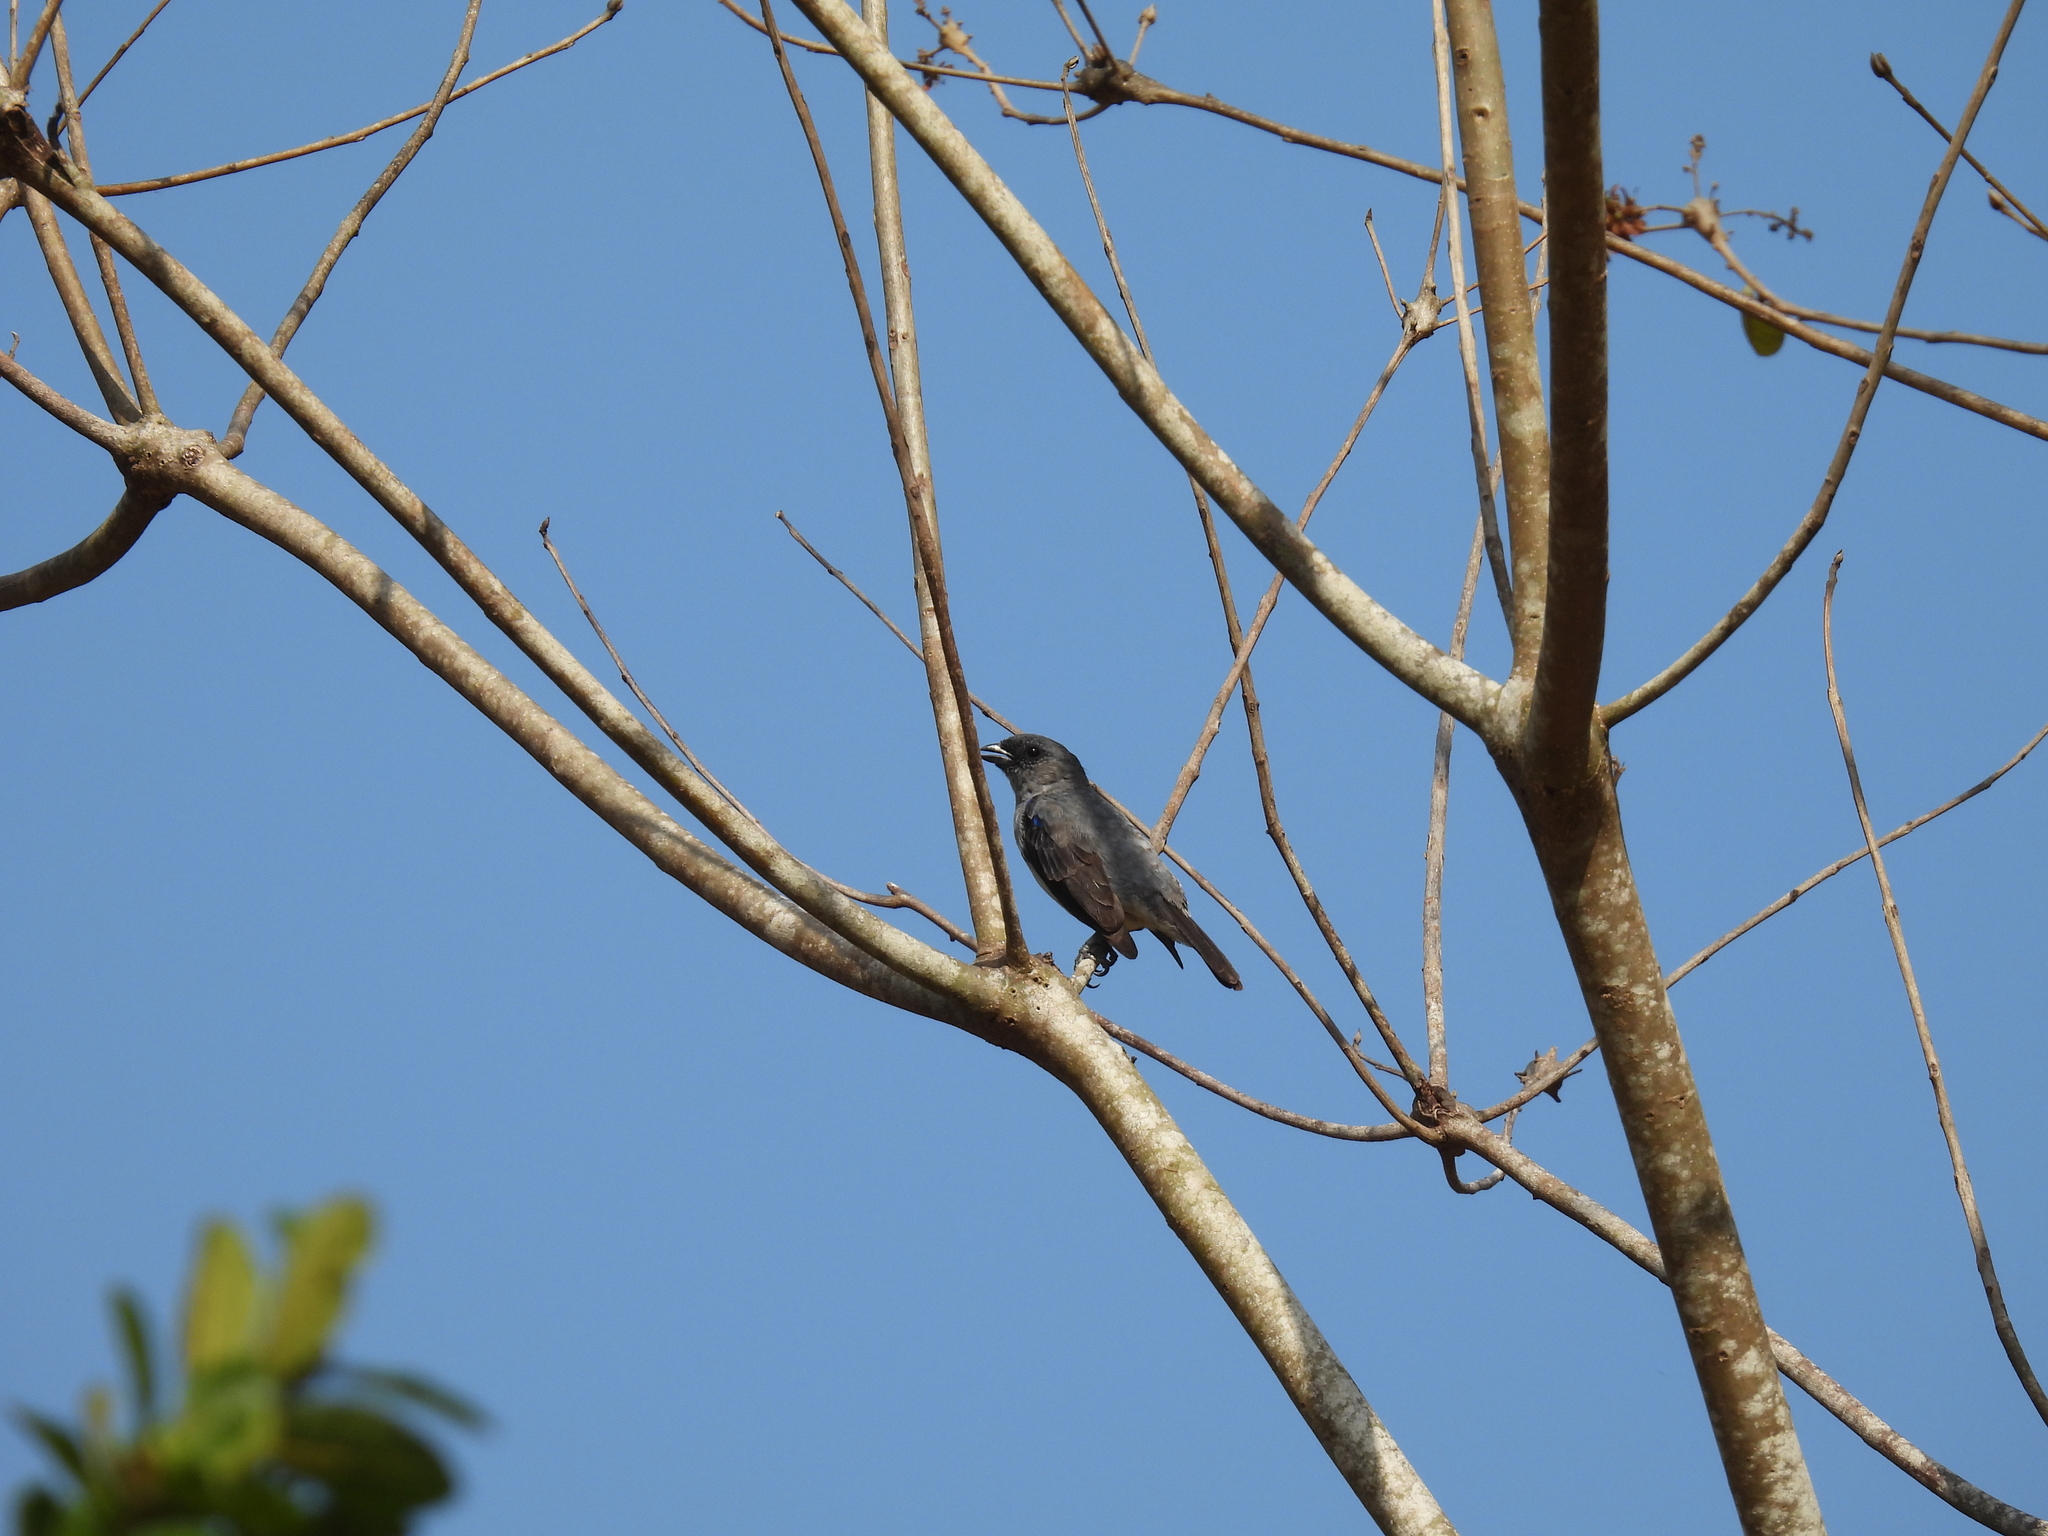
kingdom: Animalia
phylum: Chordata
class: Aves
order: Passeriformes
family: Thraupidae
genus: Tangara
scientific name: Tangara inornata
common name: Plain-colored tanager
